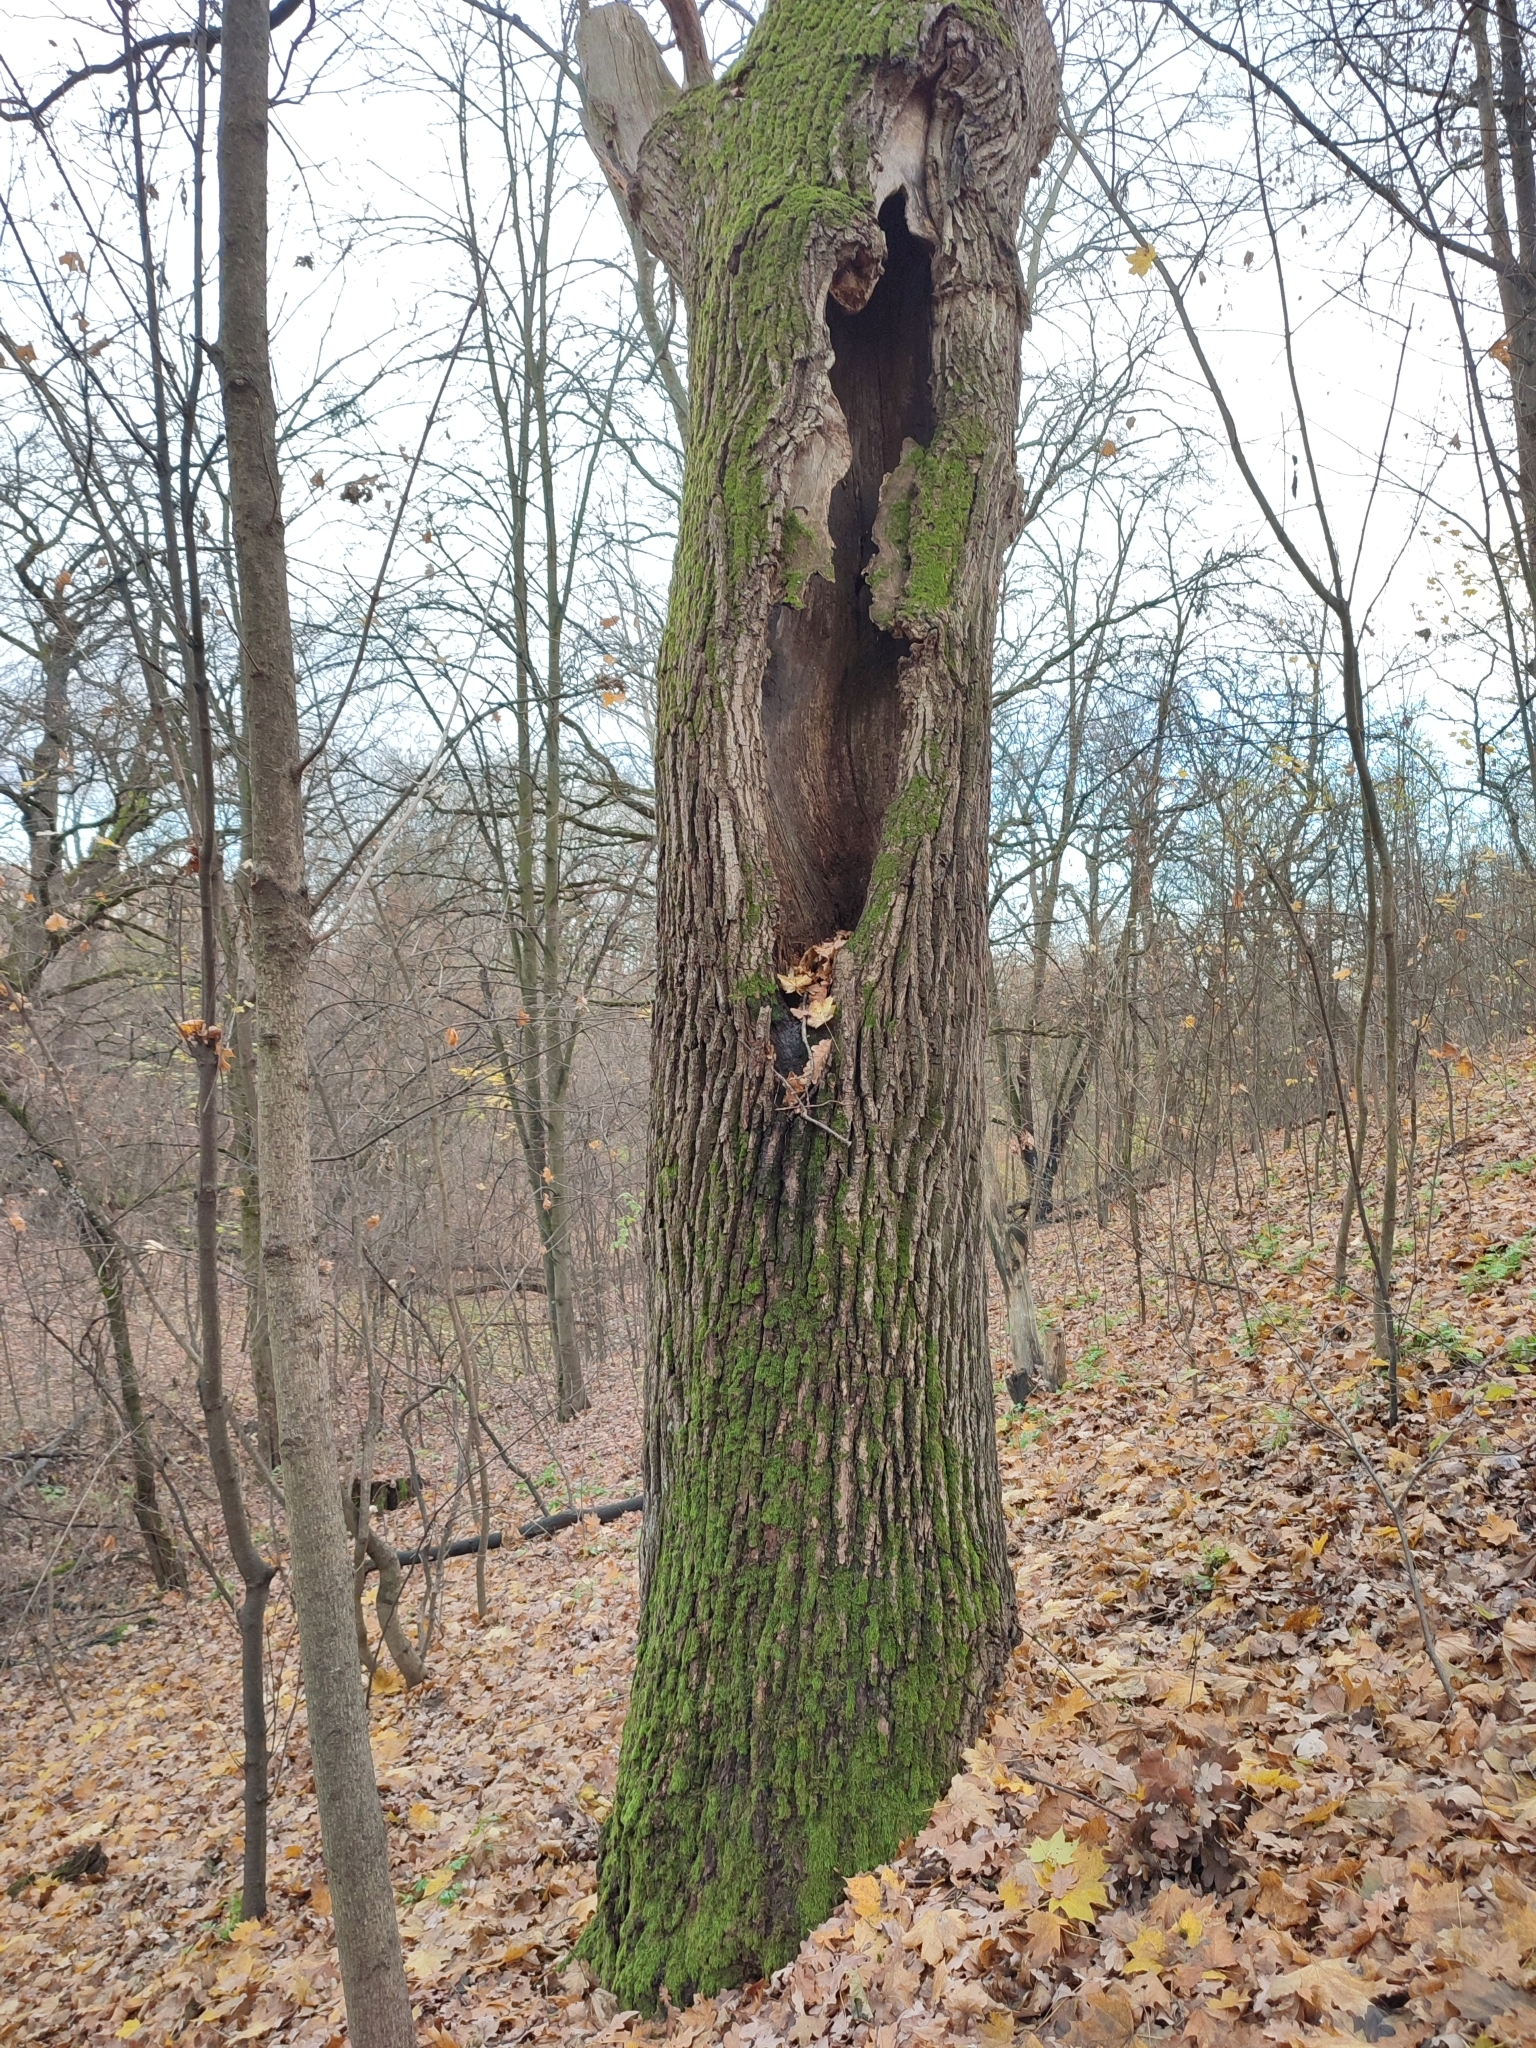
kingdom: Plantae
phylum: Tracheophyta
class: Magnoliopsida
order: Fagales
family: Fagaceae
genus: Quercus
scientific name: Quercus robur
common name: Pedunculate oak
